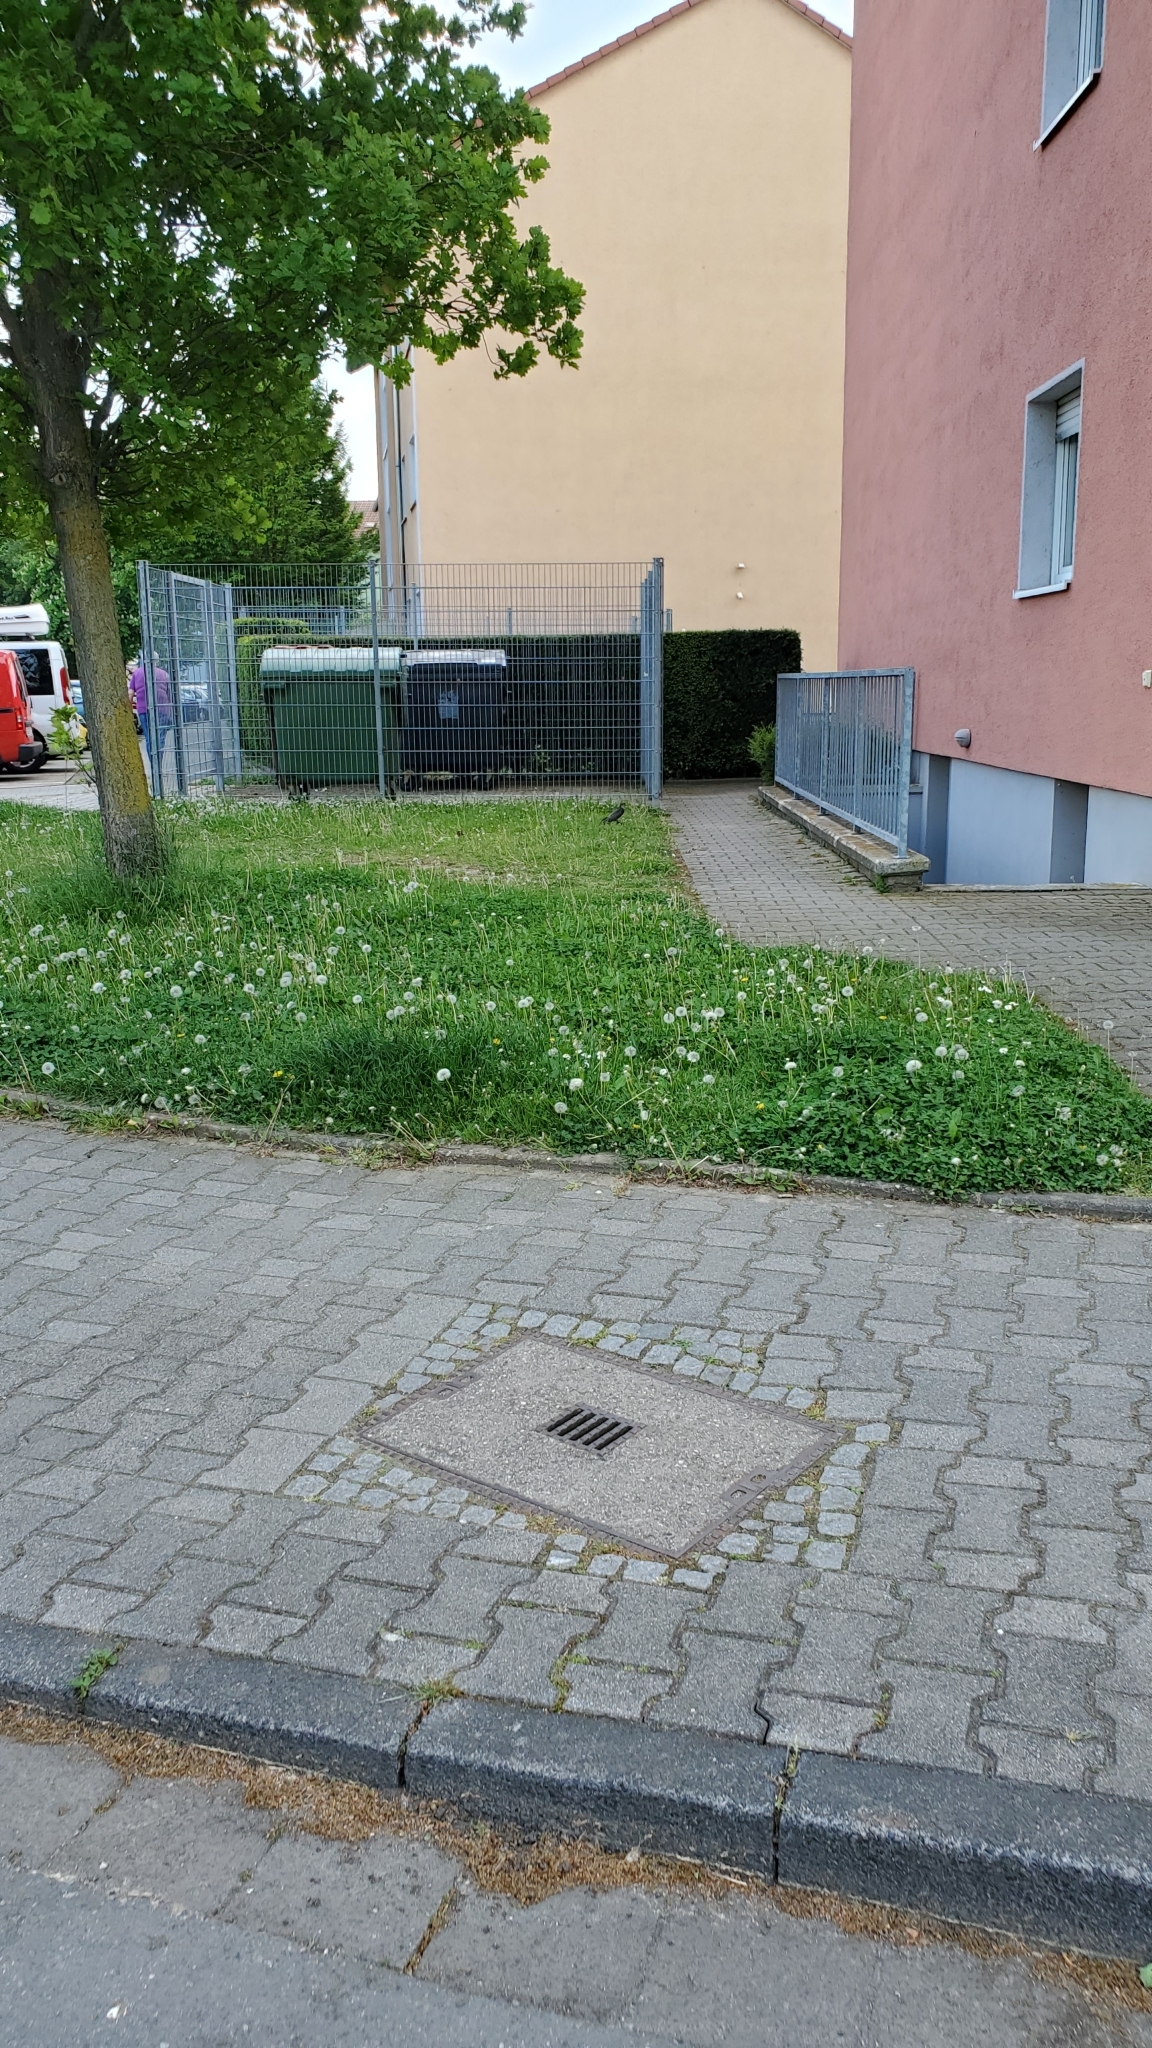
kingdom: Animalia
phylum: Chordata
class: Aves
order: Accipitriformes
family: Accipitridae
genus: Accipiter
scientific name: Accipiter nisus
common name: Eurasian sparrowhawk
